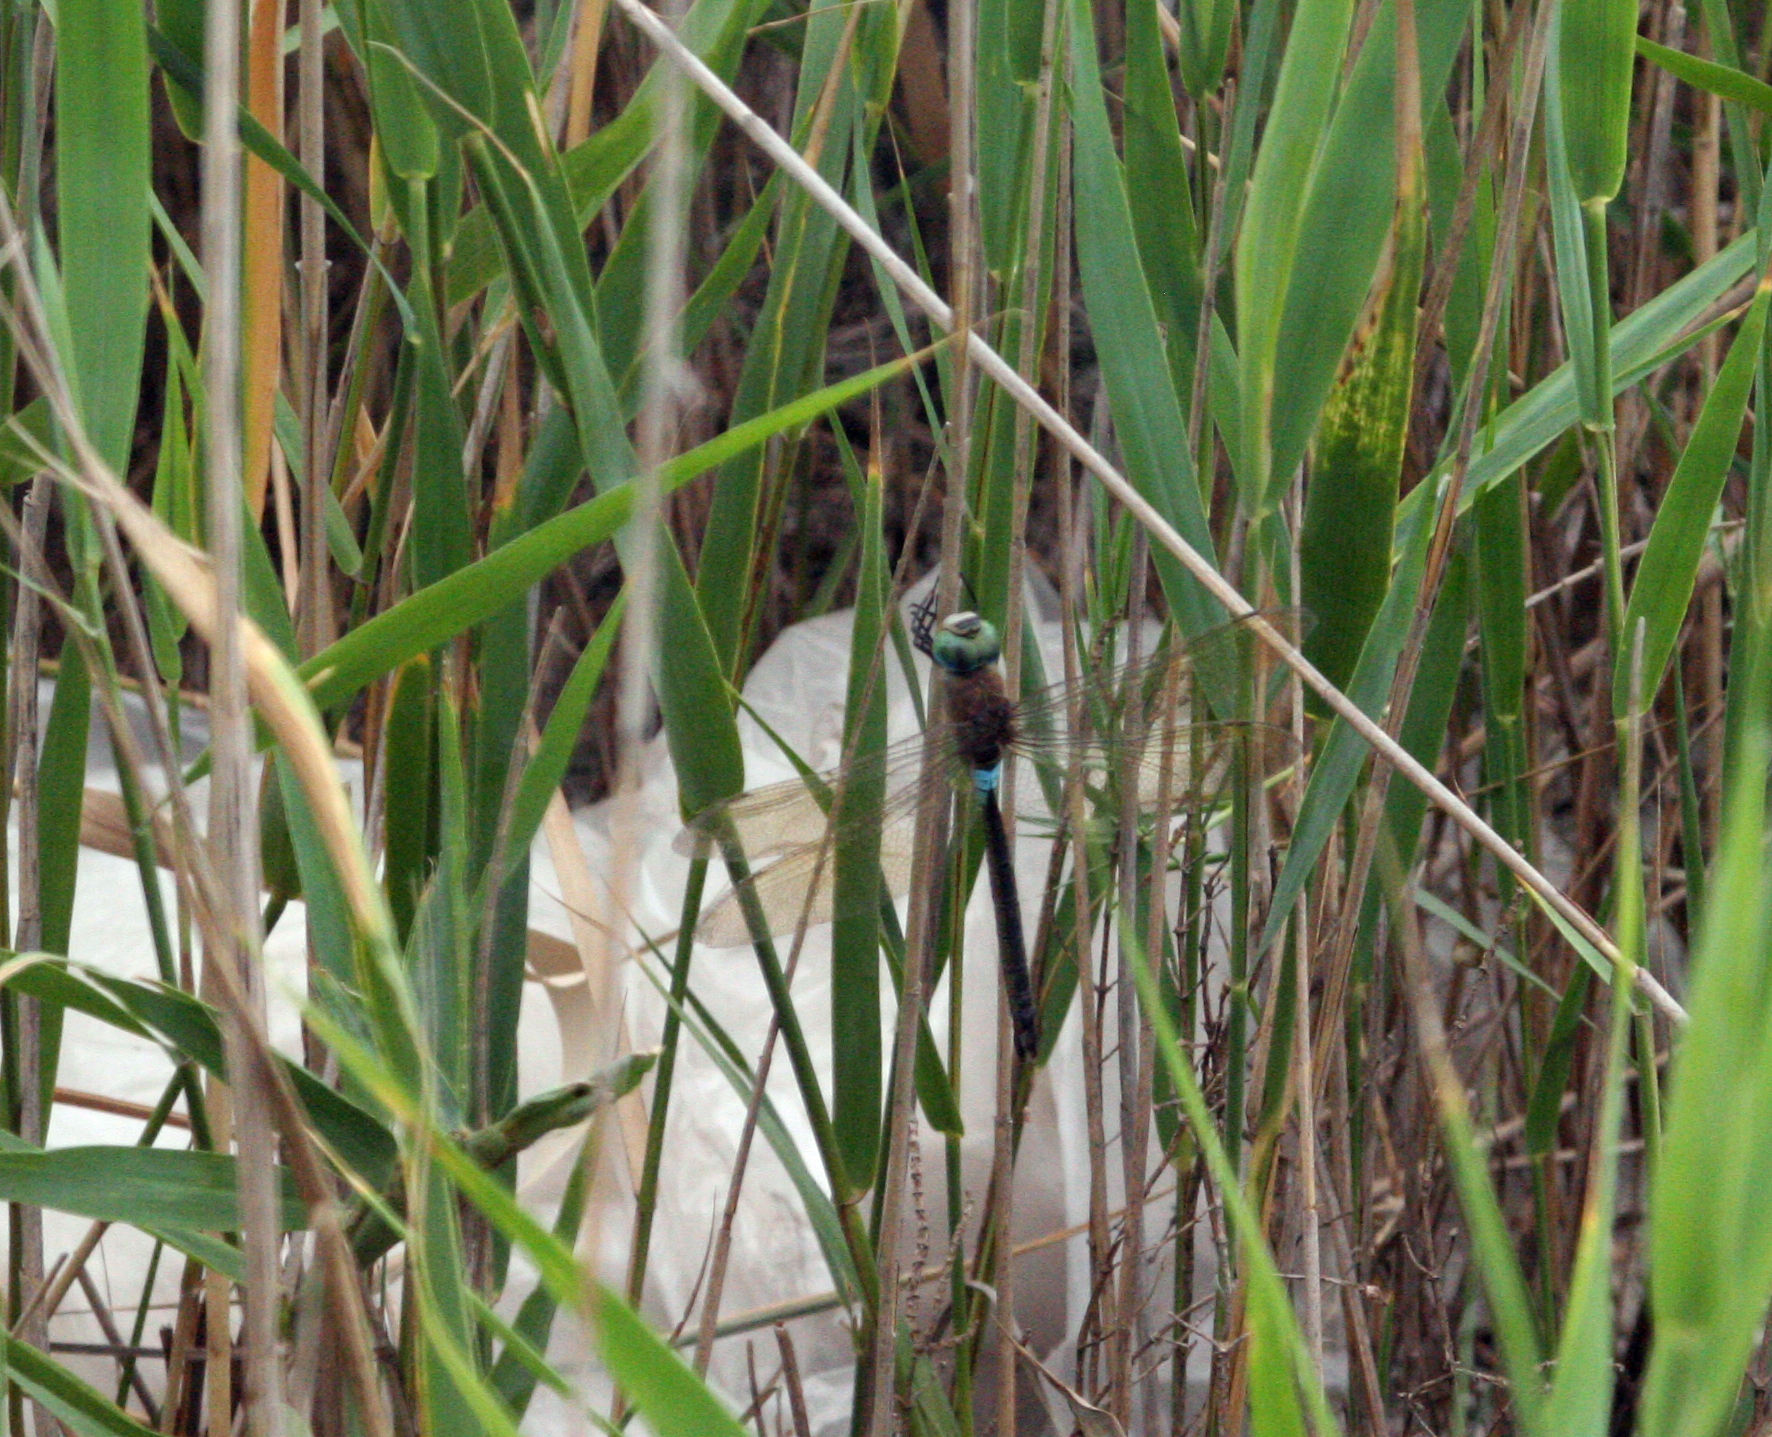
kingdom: Animalia
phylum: Arthropoda
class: Insecta
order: Odonata
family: Aeshnidae
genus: Anax
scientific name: Anax parthenope
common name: Lesser emperor
